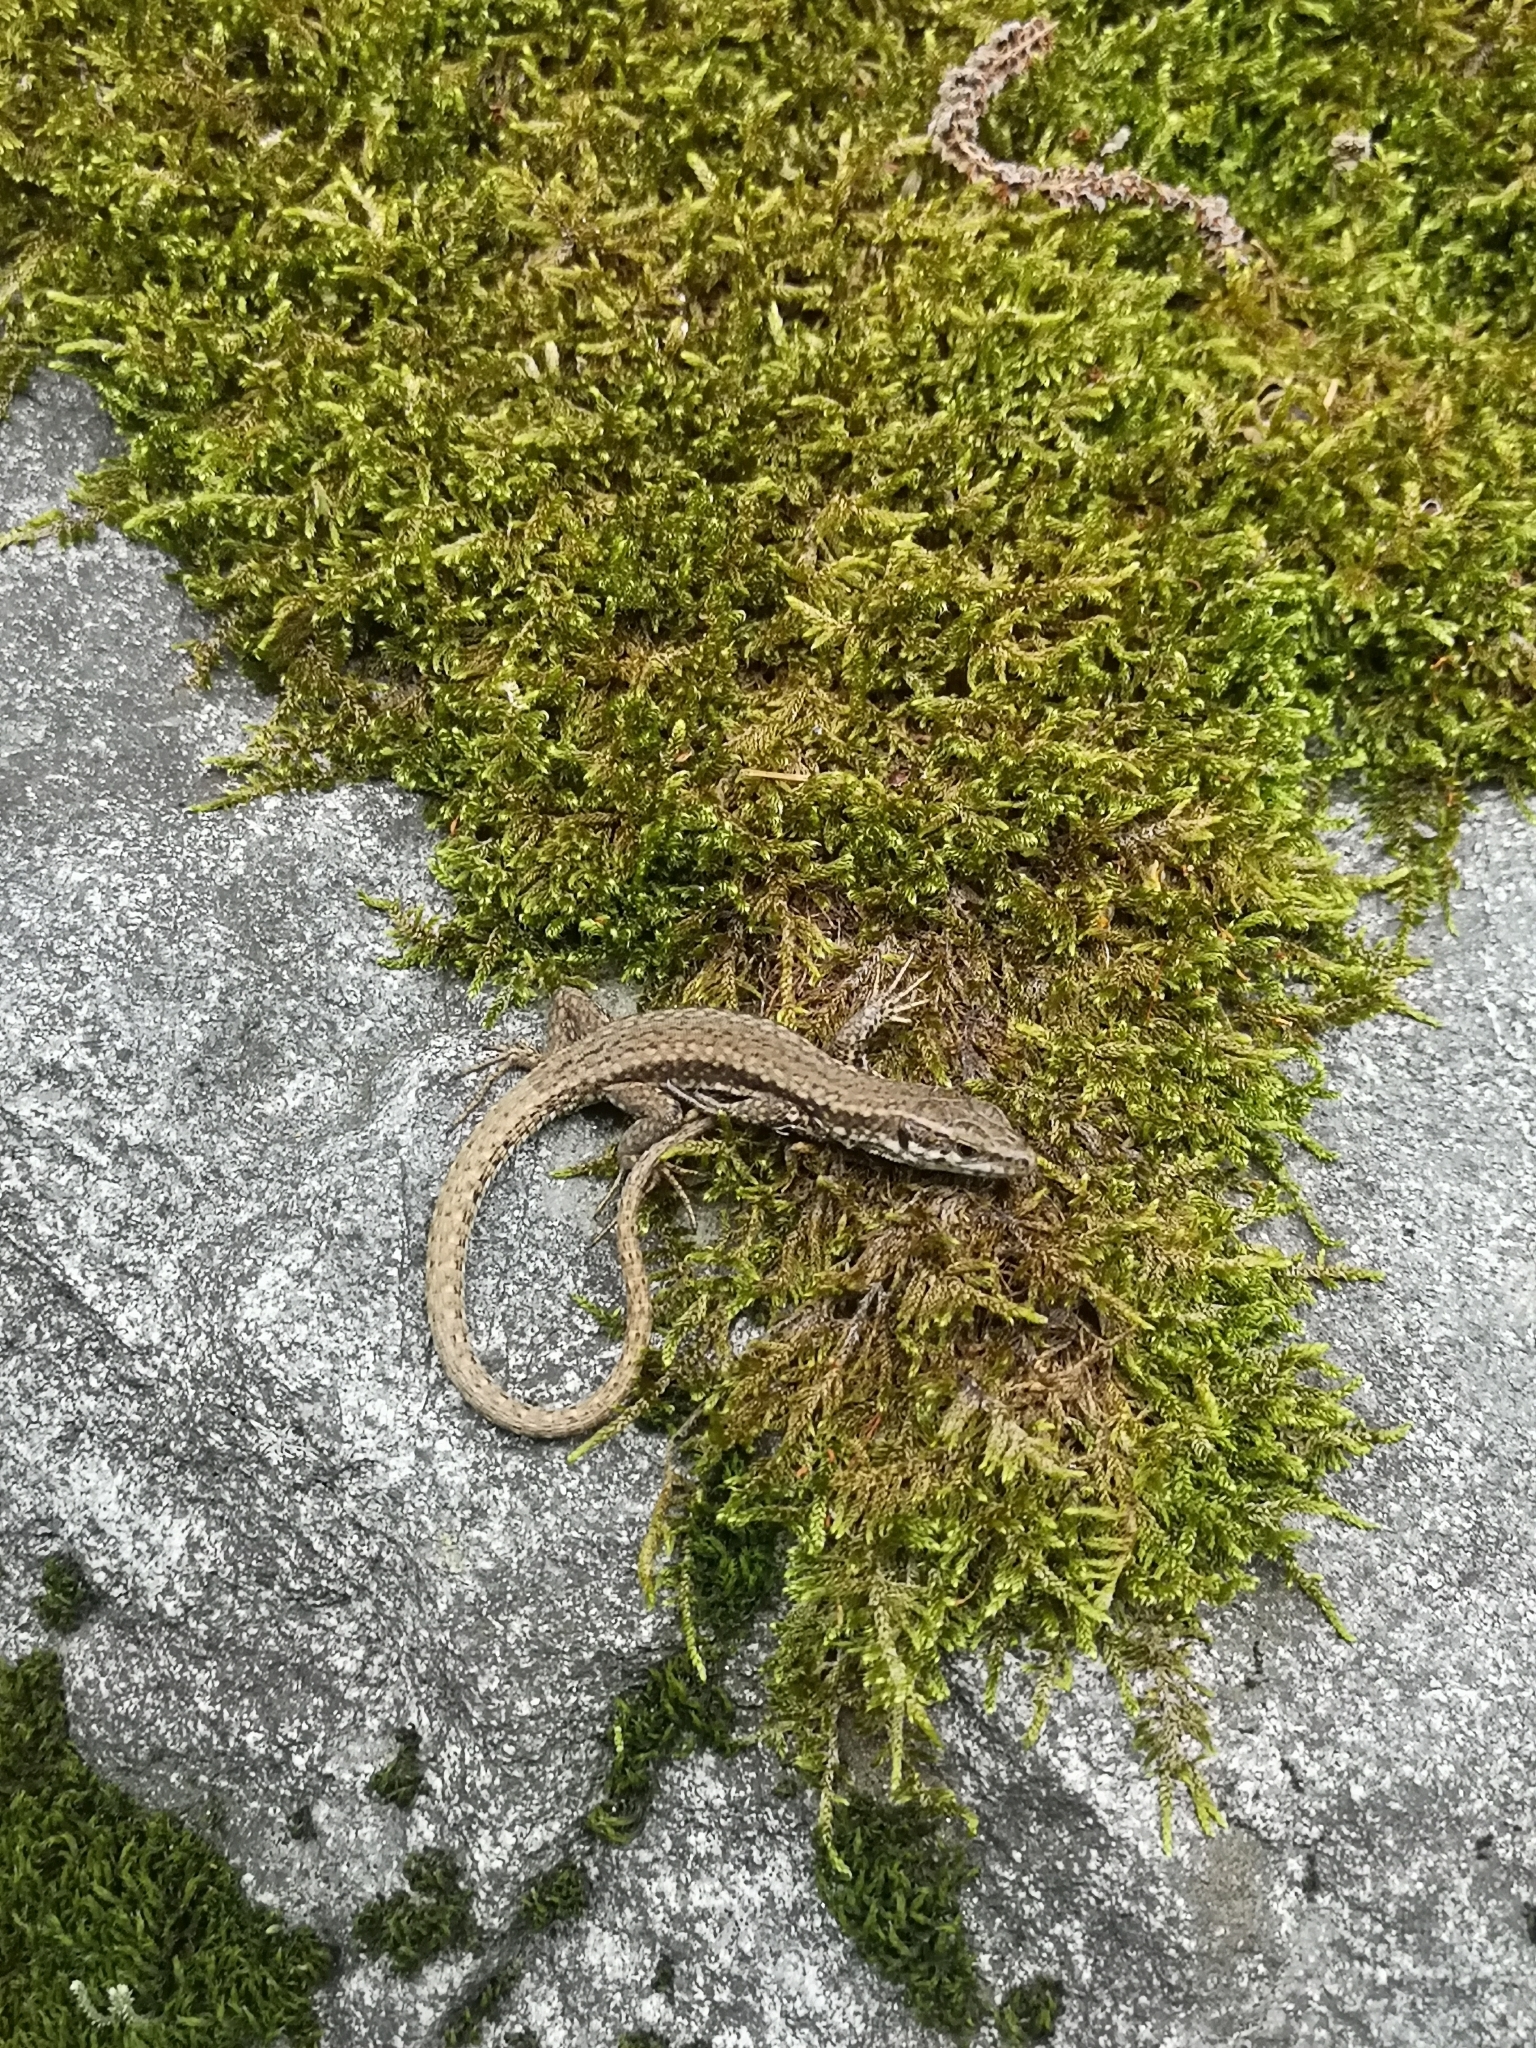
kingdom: Animalia
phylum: Chordata
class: Squamata
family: Lacertidae
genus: Podarcis
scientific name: Podarcis muralis
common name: Common wall lizard
